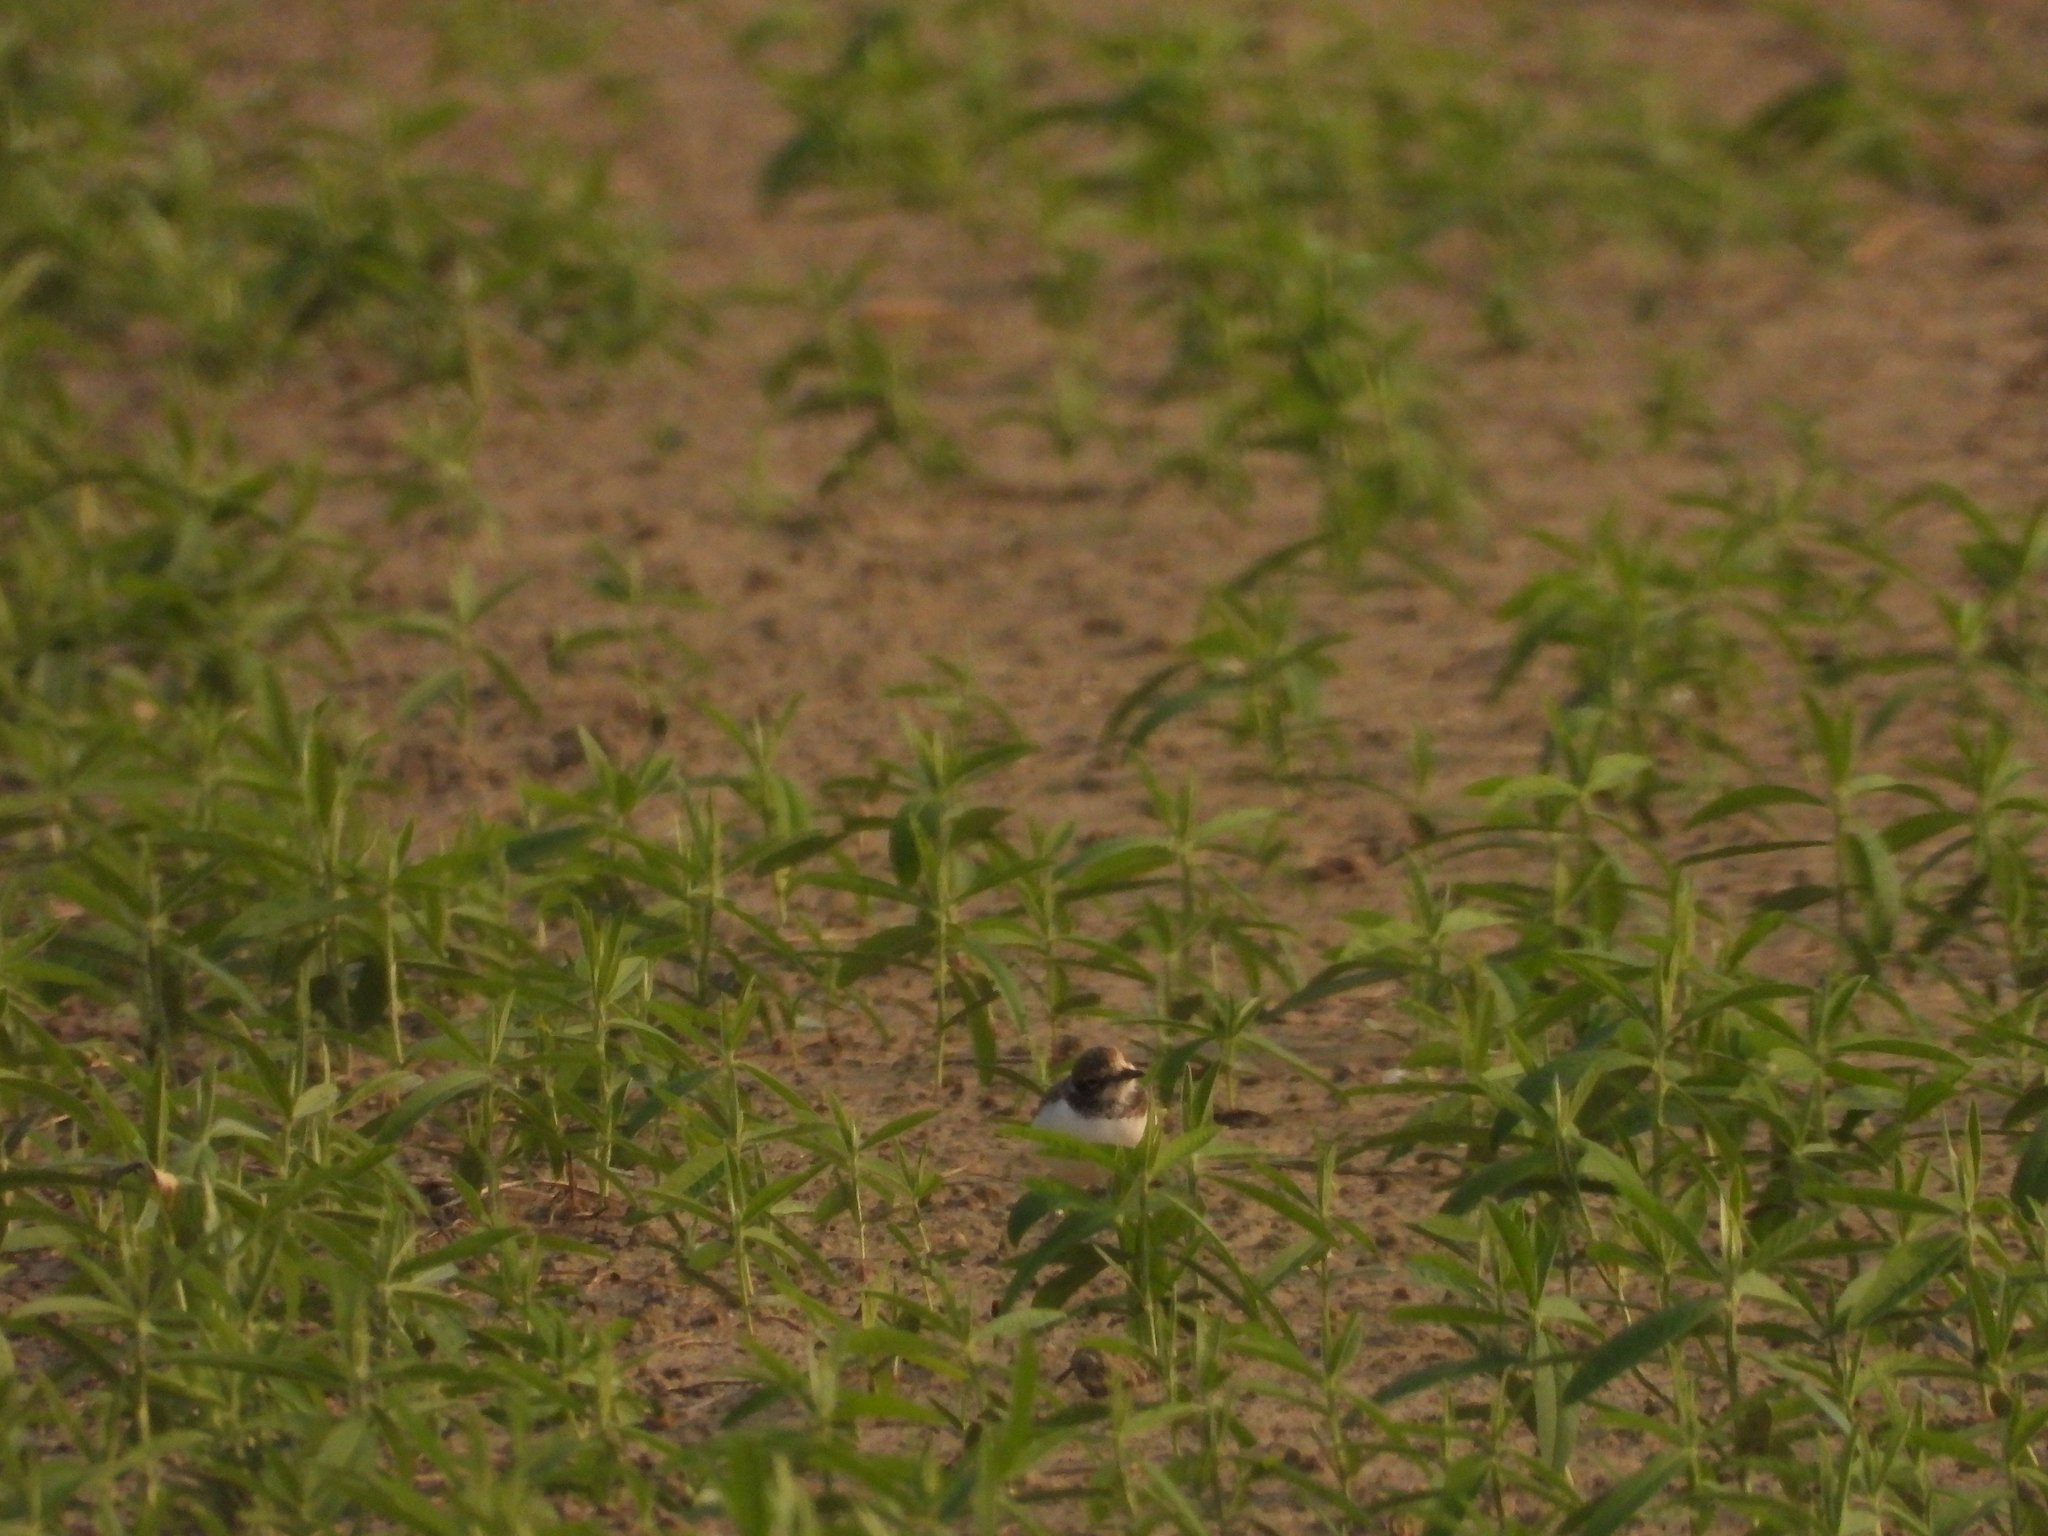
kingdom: Animalia
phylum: Chordata
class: Aves
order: Charadriiformes
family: Charadriidae
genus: Charadrius
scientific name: Charadrius dubius
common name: Little ringed plover
